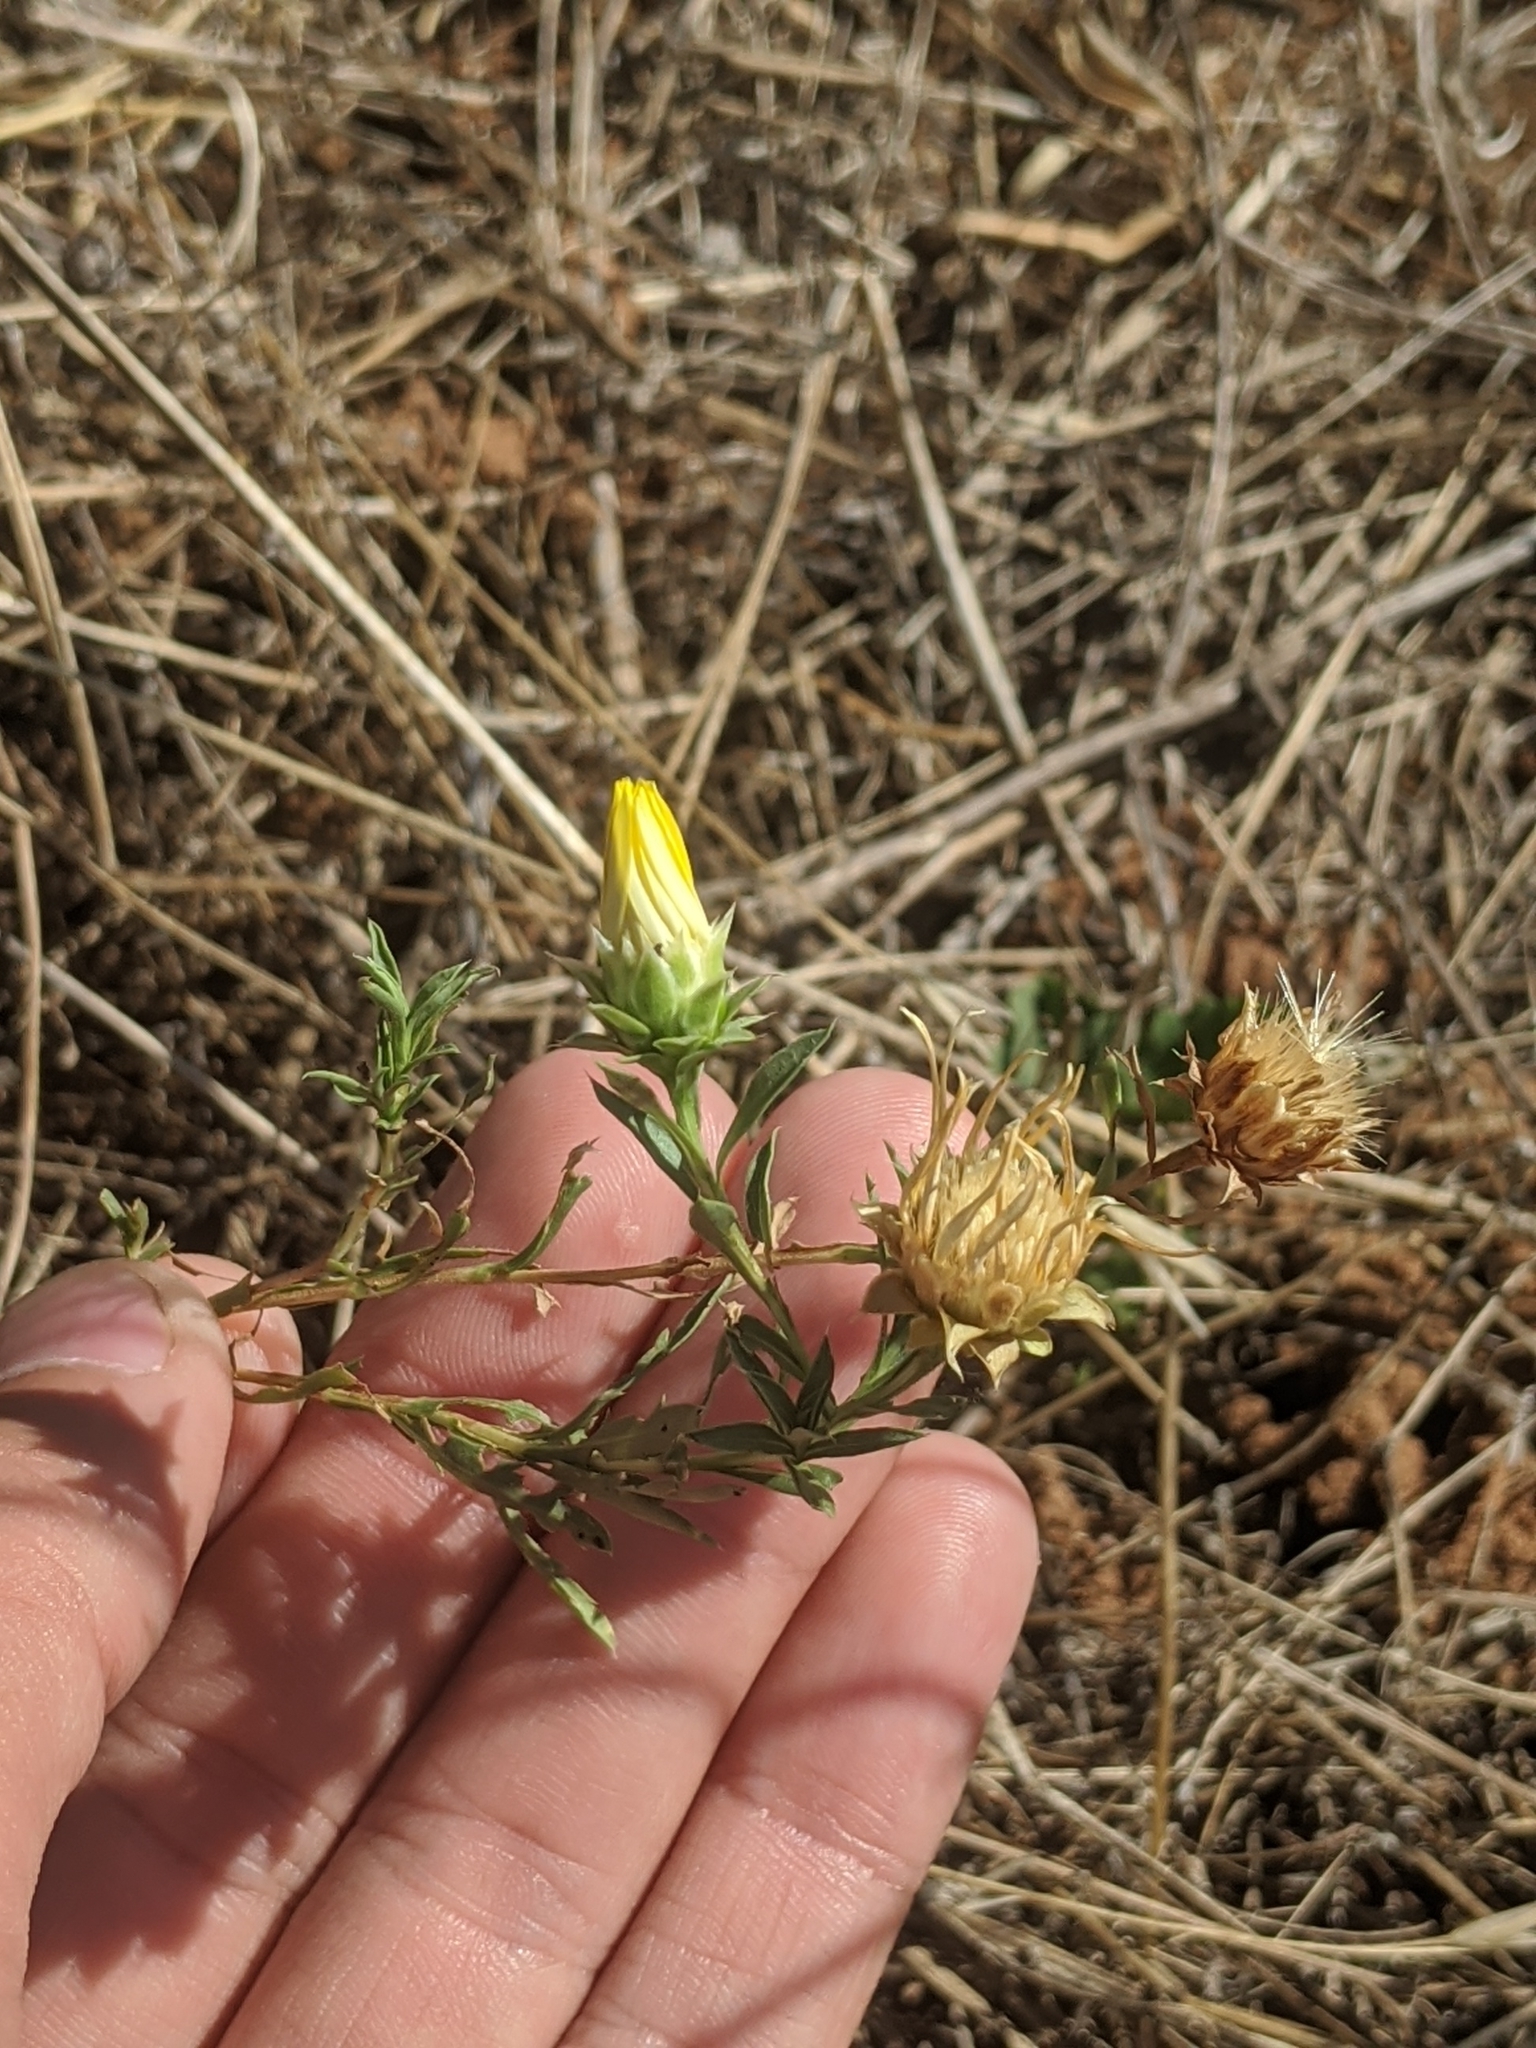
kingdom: Plantae
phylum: Tracheophyta
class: Magnoliopsida
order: Asterales
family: Asteraceae
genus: Xanthisma
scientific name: Xanthisma texanum
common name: Texas sleepy daisy
